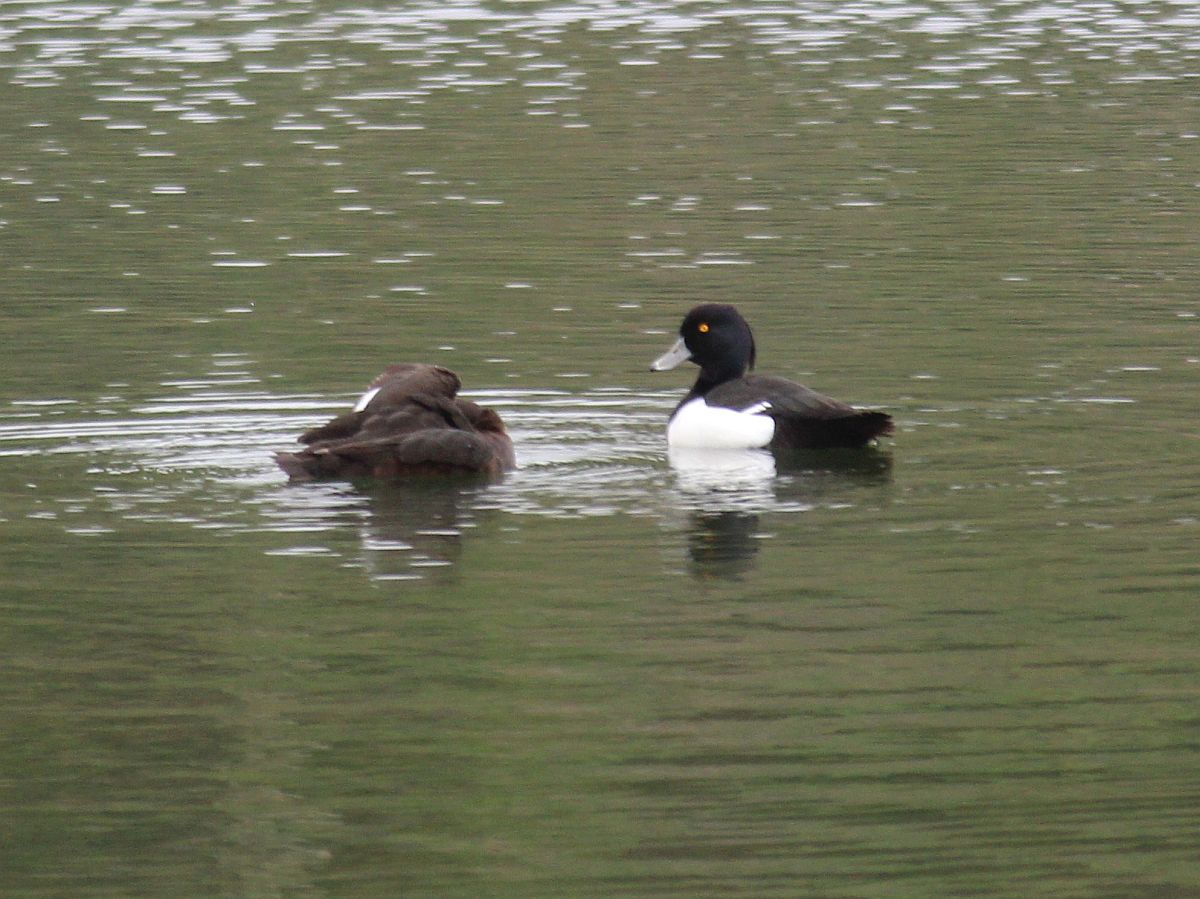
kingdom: Animalia
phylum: Chordata
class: Aves
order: Anseriformes
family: Anatidae
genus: Aythya
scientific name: Aythya fuligula
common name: Tufted duck
